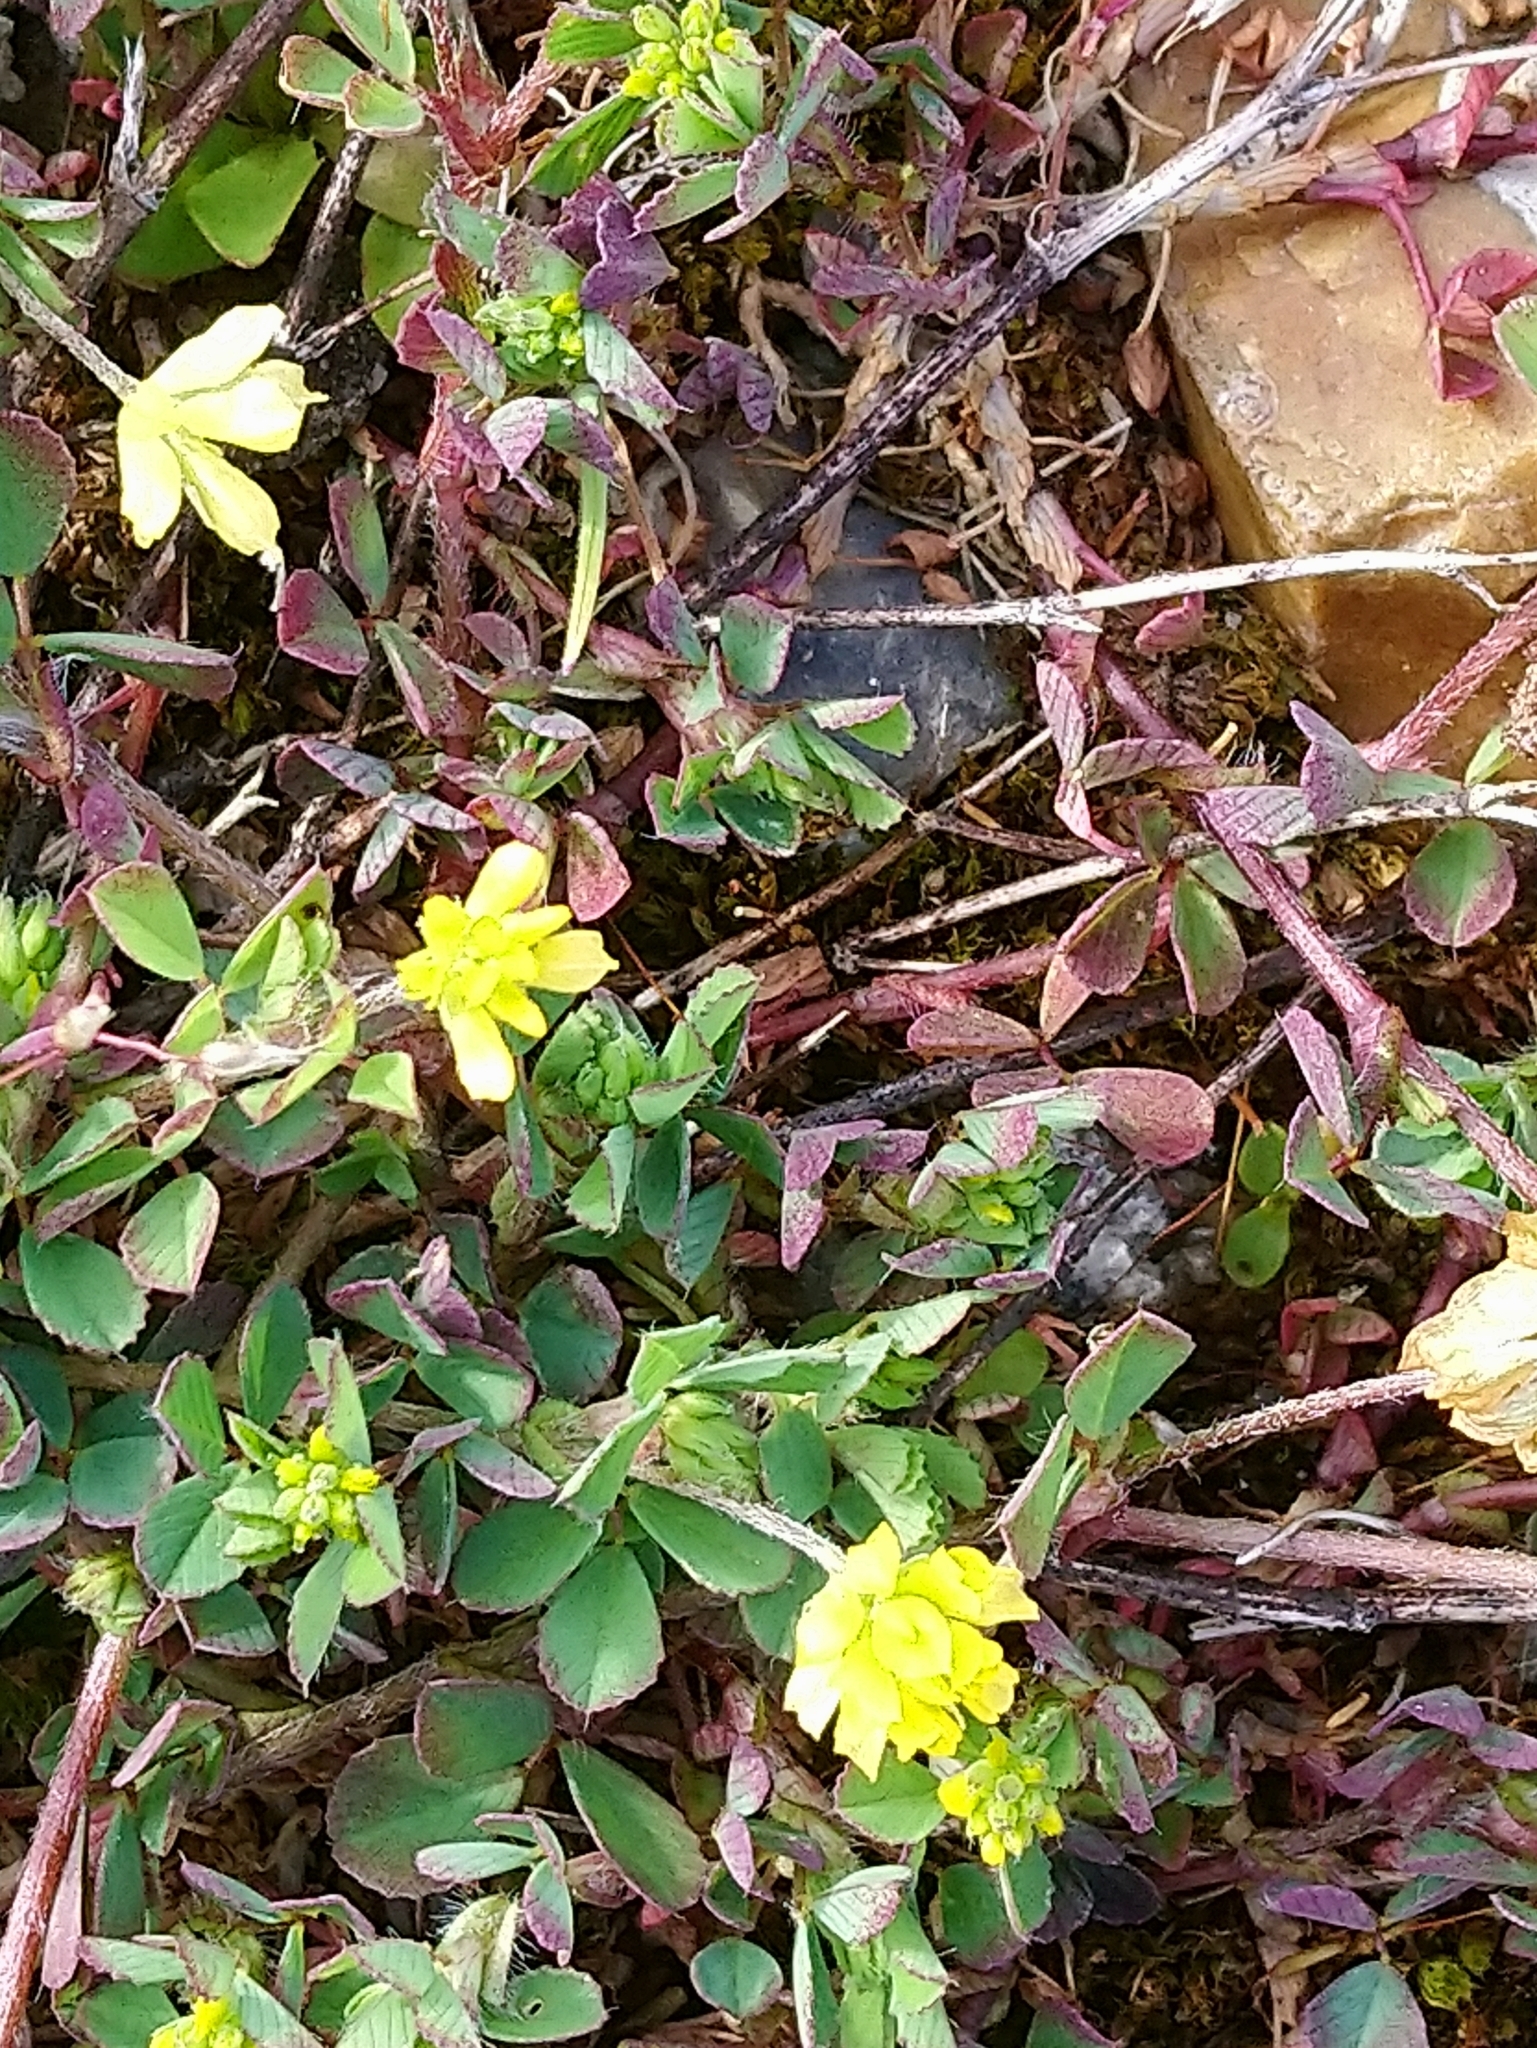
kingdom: Plantae
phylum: Tracheophyta
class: Magnoliopsida
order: Fabales
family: Fabaceae
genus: Trifolium
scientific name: Trifolium dubium
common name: Suckling clover
